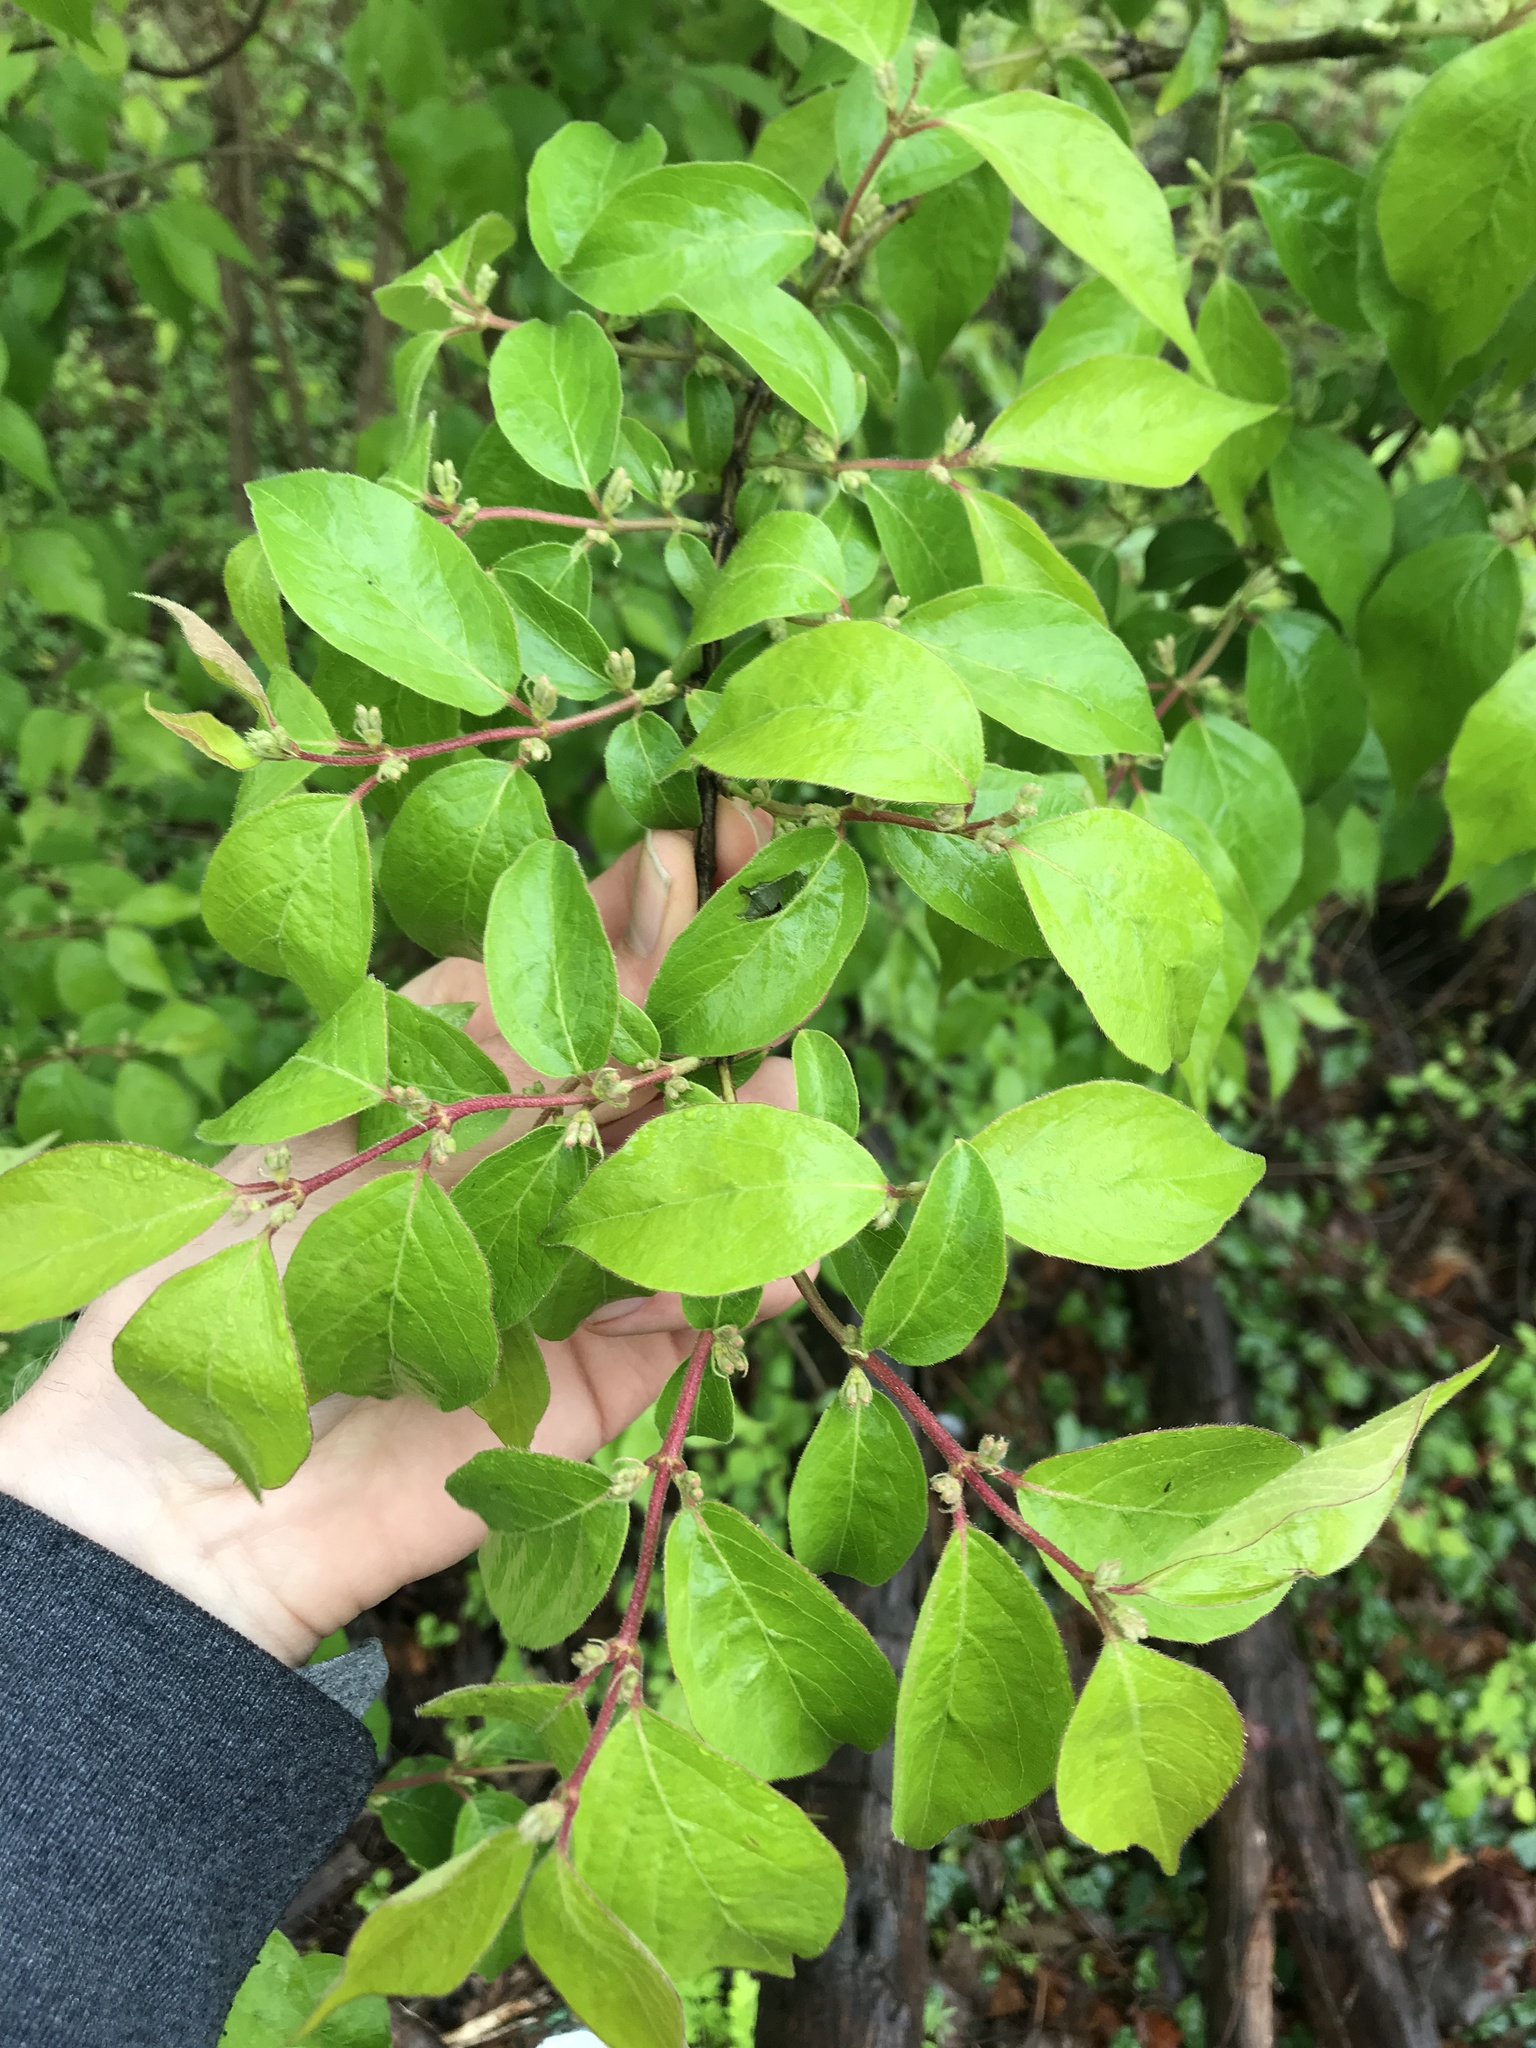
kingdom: Plantae
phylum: Tracheophyta
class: Magnoliopsida
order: Dipsacales
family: Caprifoliaceae
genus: Lonicera
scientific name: Lonicera maackii
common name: Amur honeysuckle
